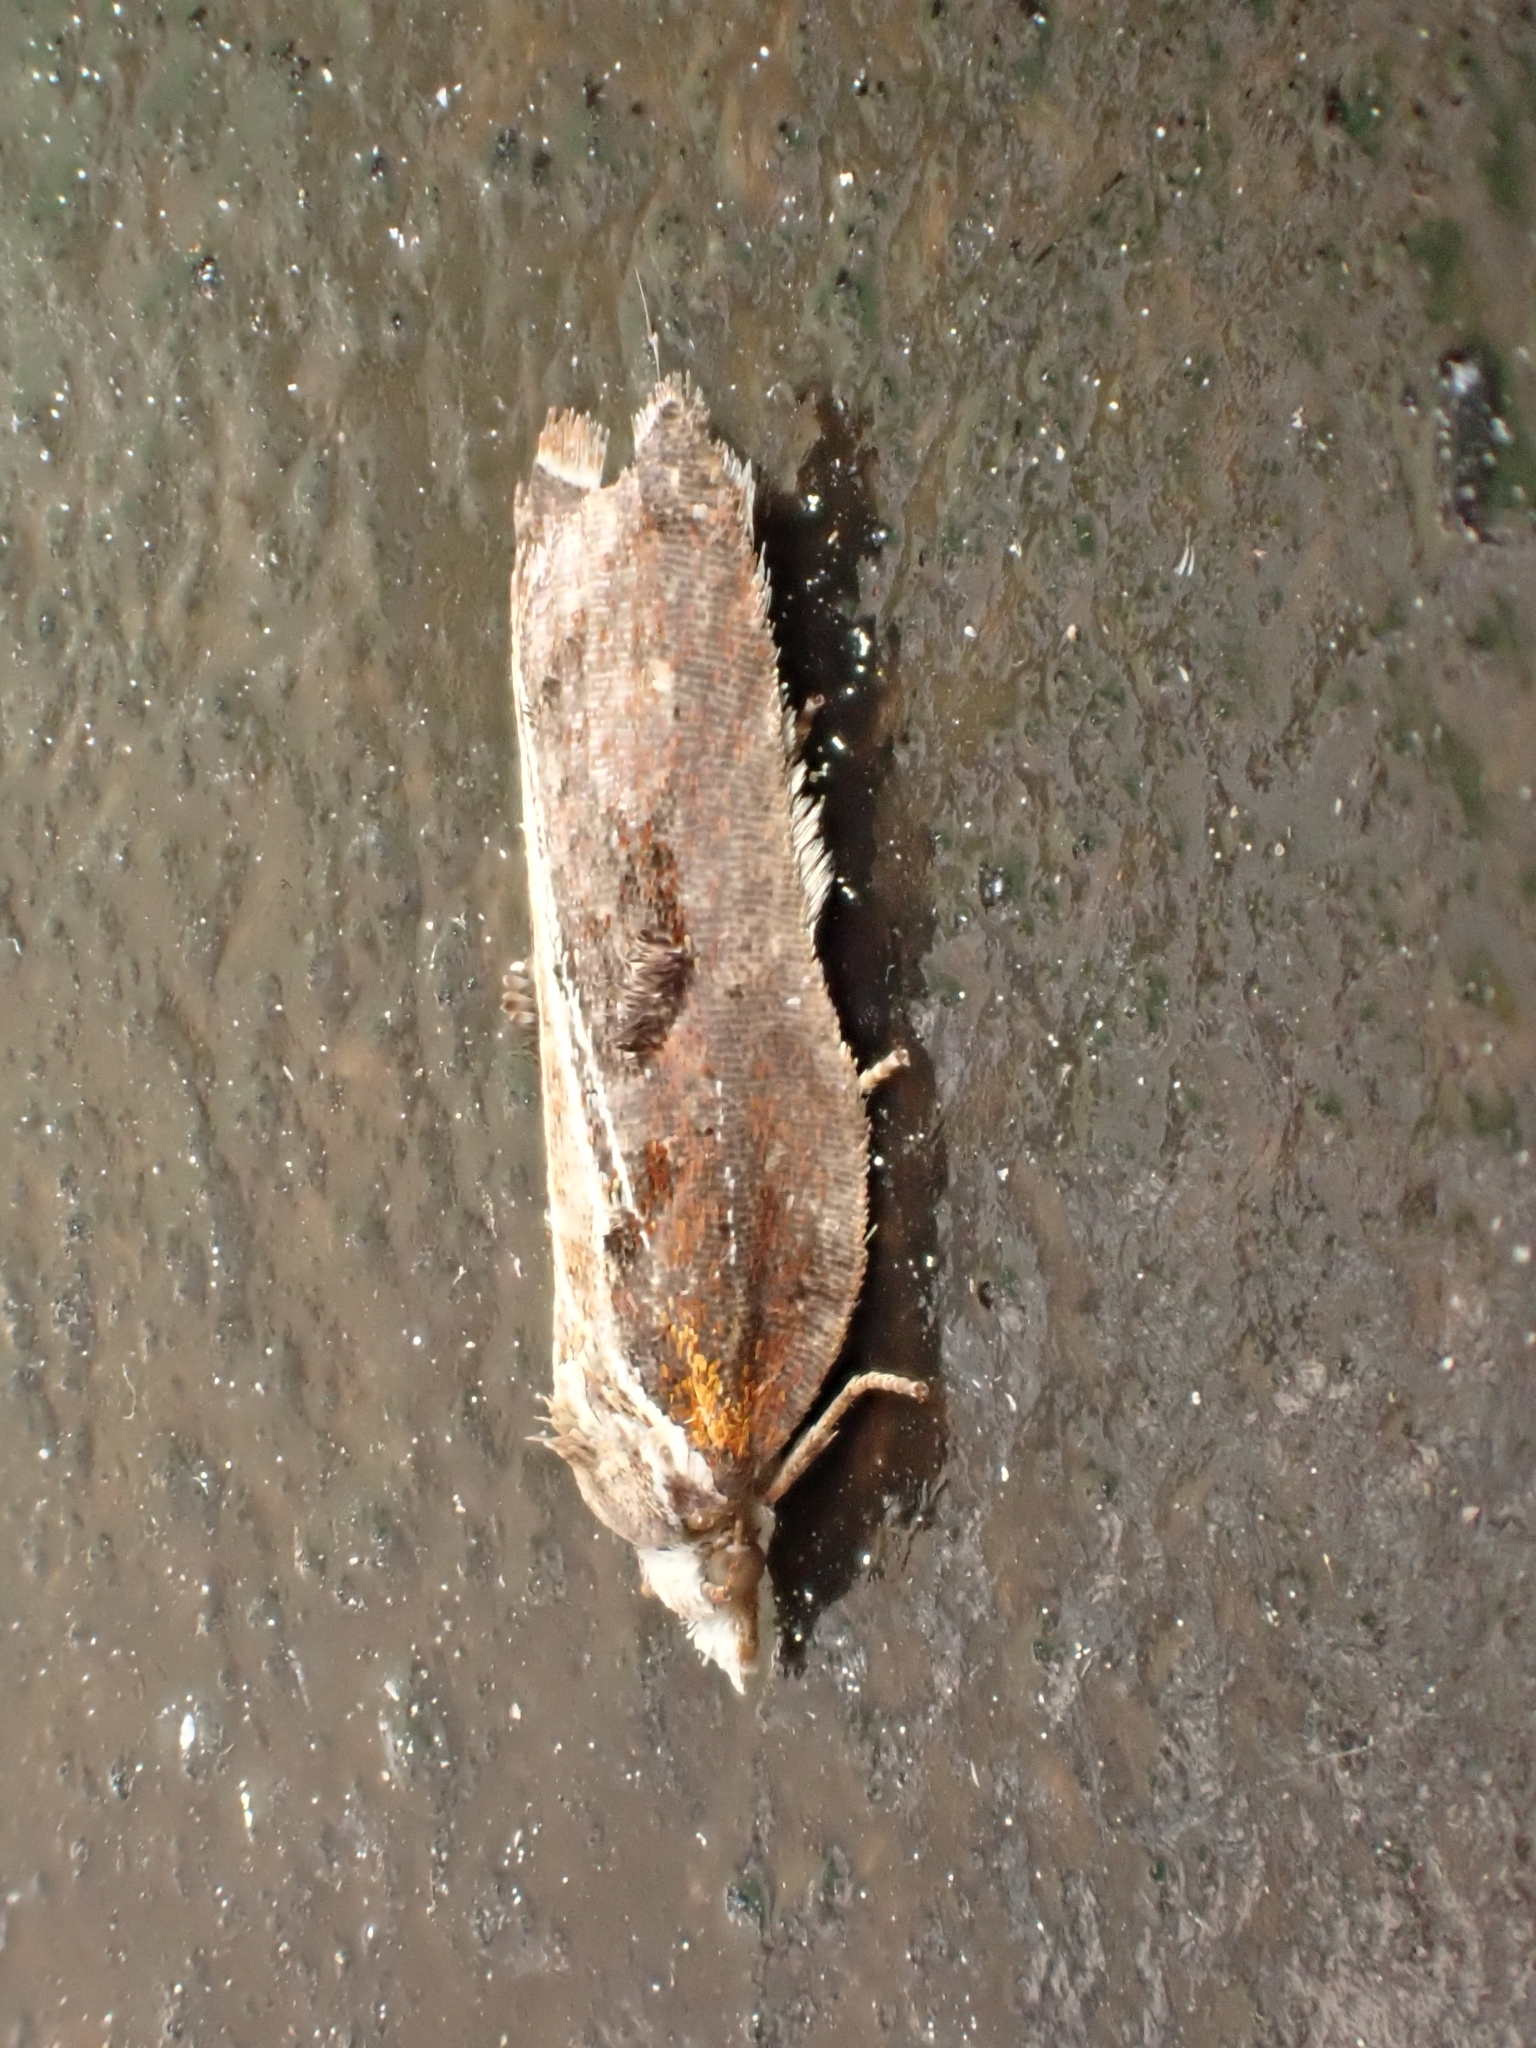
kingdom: Animalia
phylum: Arthropoda
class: Insecta
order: Lepidoptera
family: Tortricidae
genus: Acleris
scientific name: Acleris cristana
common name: Tufted button
